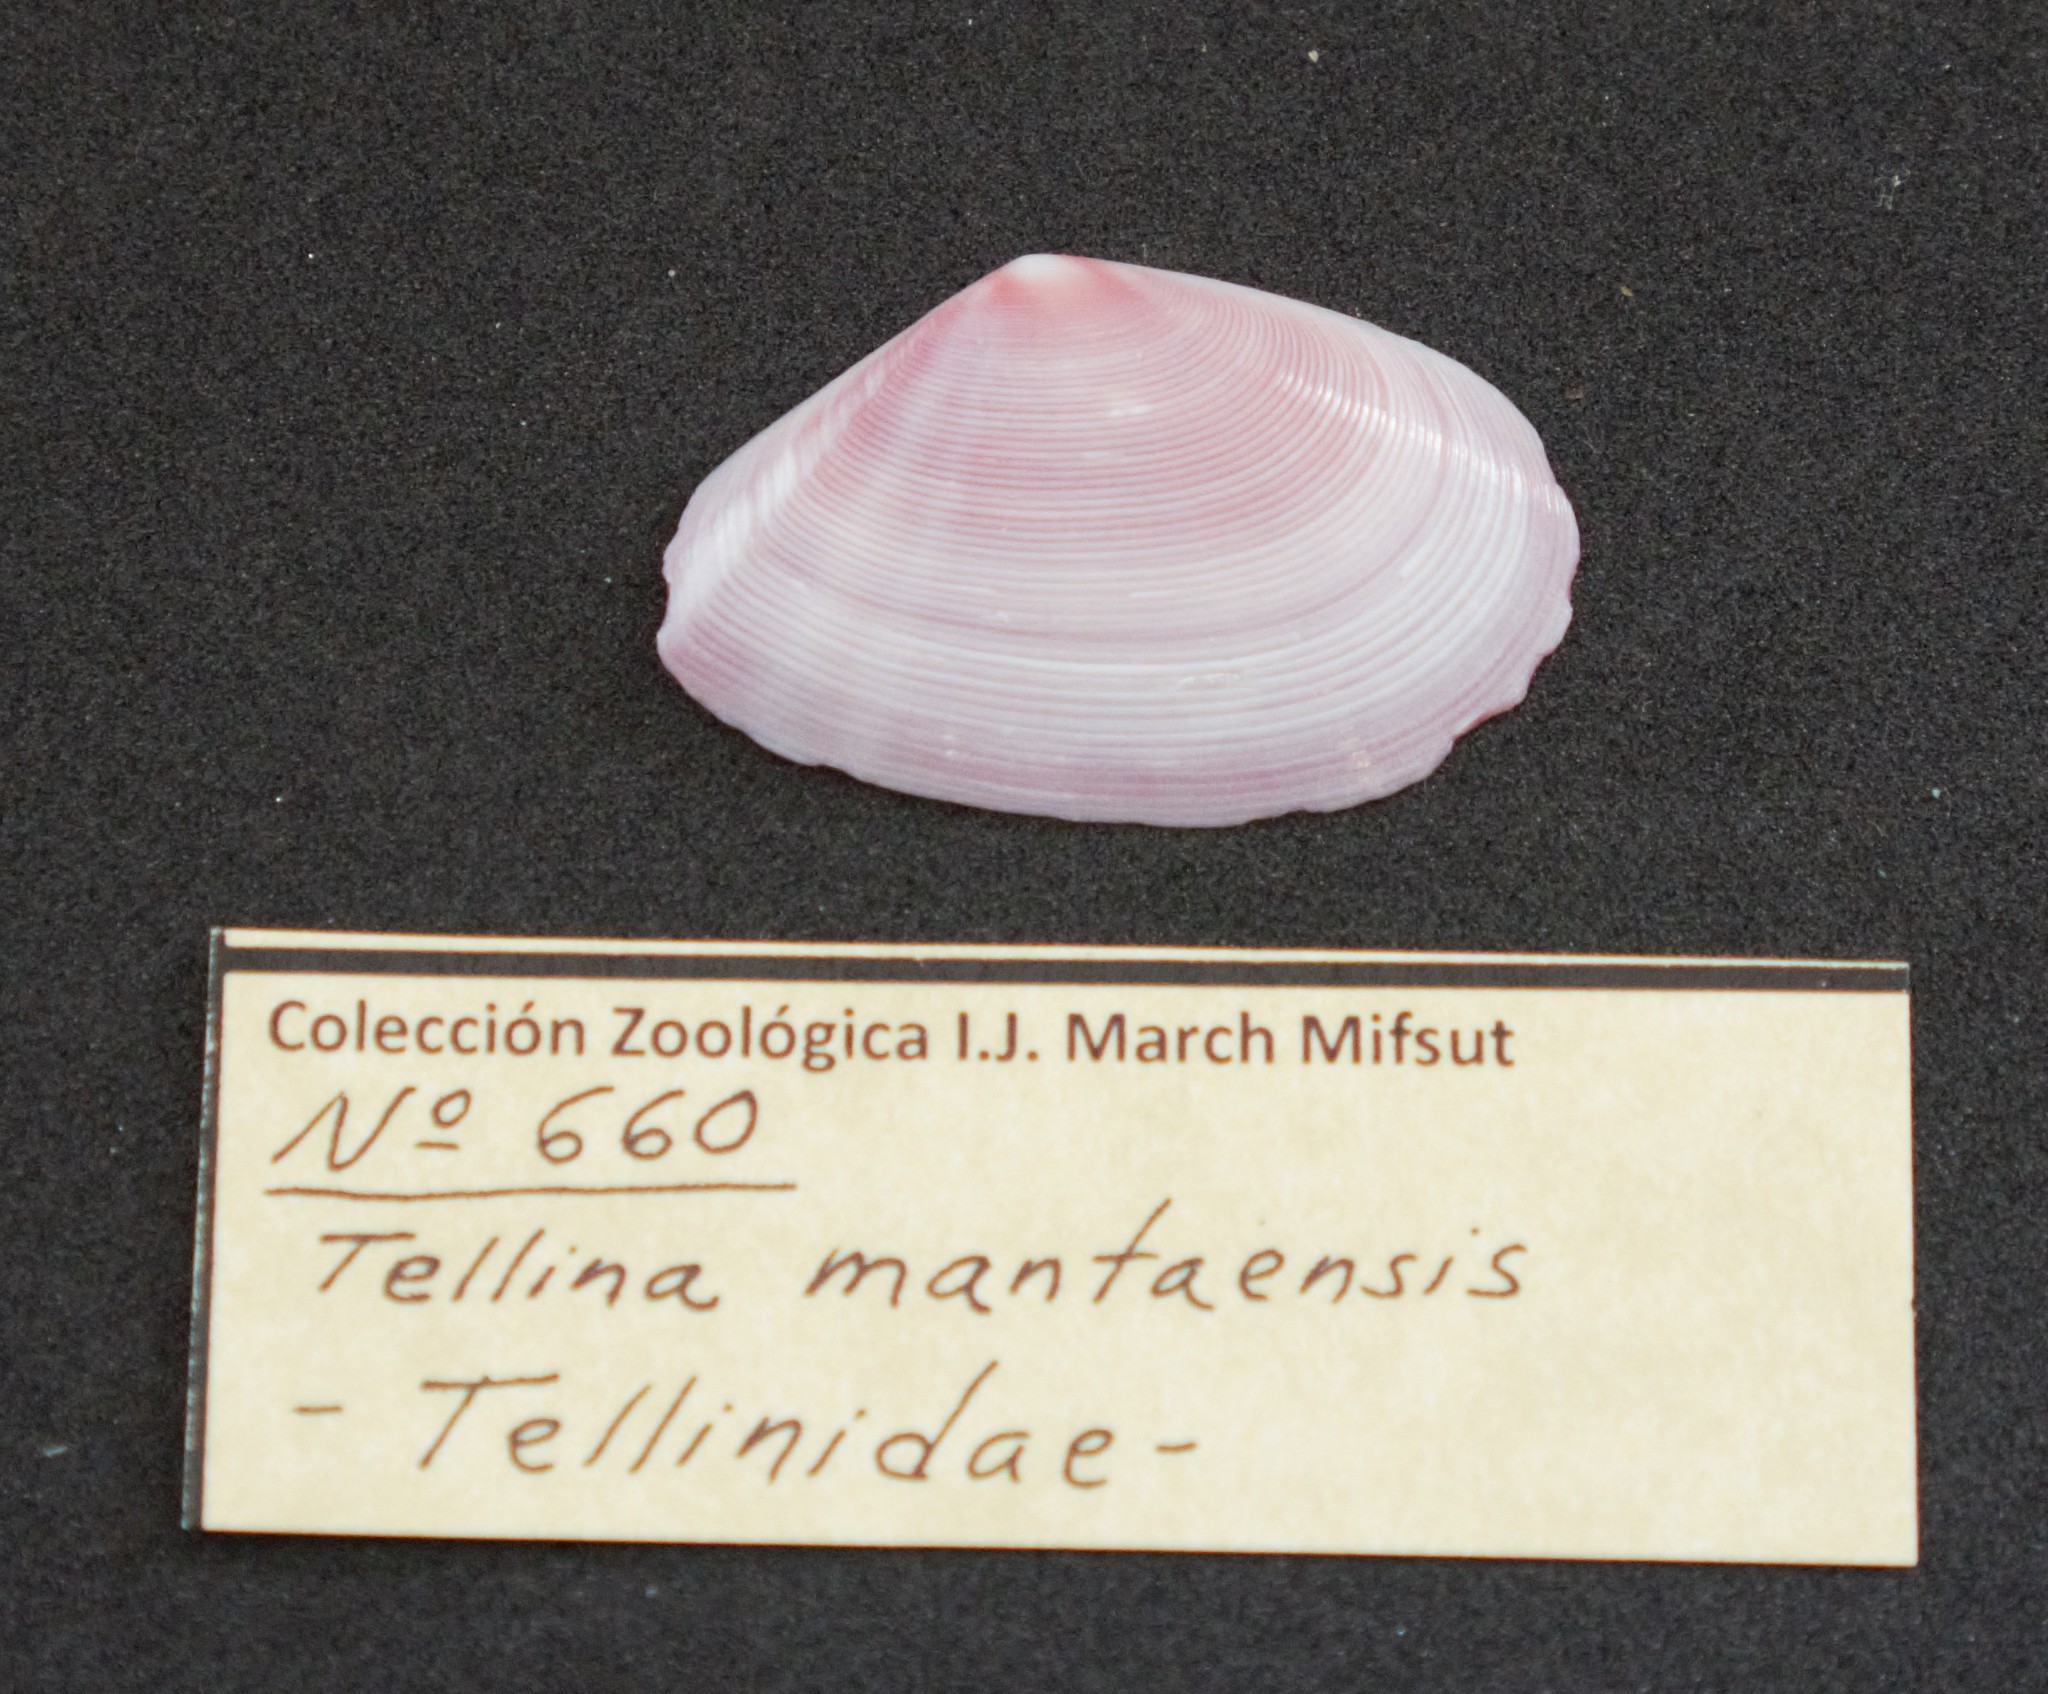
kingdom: Animalia
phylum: Mollusca
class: Bivalvia
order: Cardiida
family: Tellinidae
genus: Eurytellina
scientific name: Eurytellina inaequistriata
